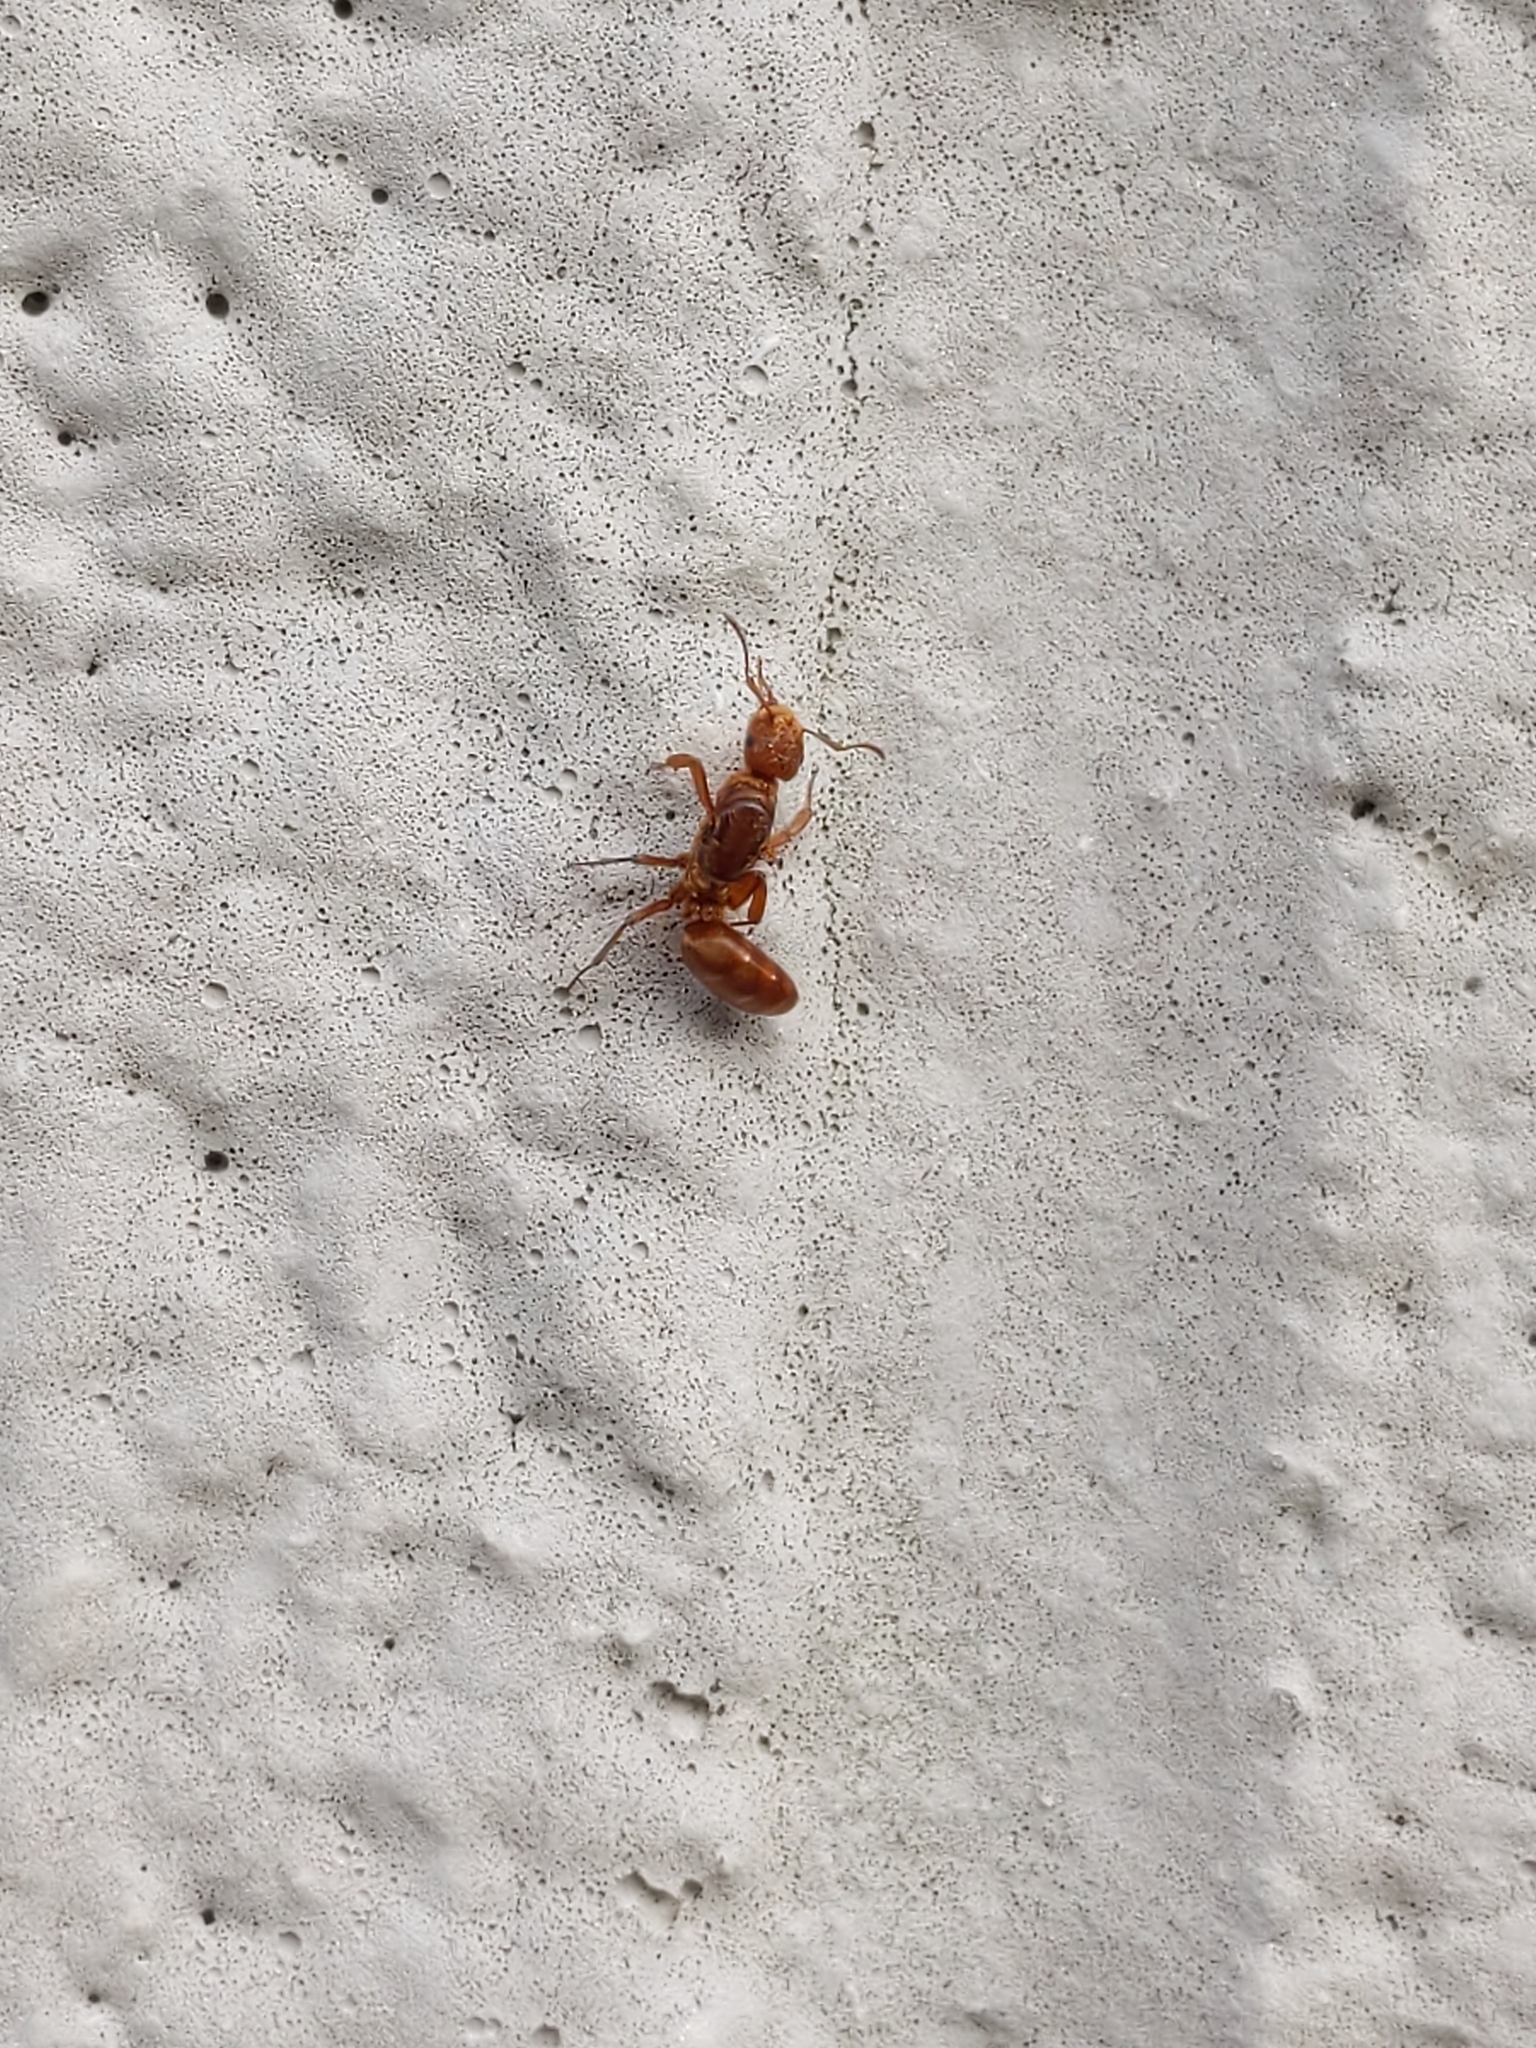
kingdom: Animalia
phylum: Arthropoda
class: Insecta
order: Hymenoptera
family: Formicidae
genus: Acanthomyops
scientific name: Acanthomyops murphyi
